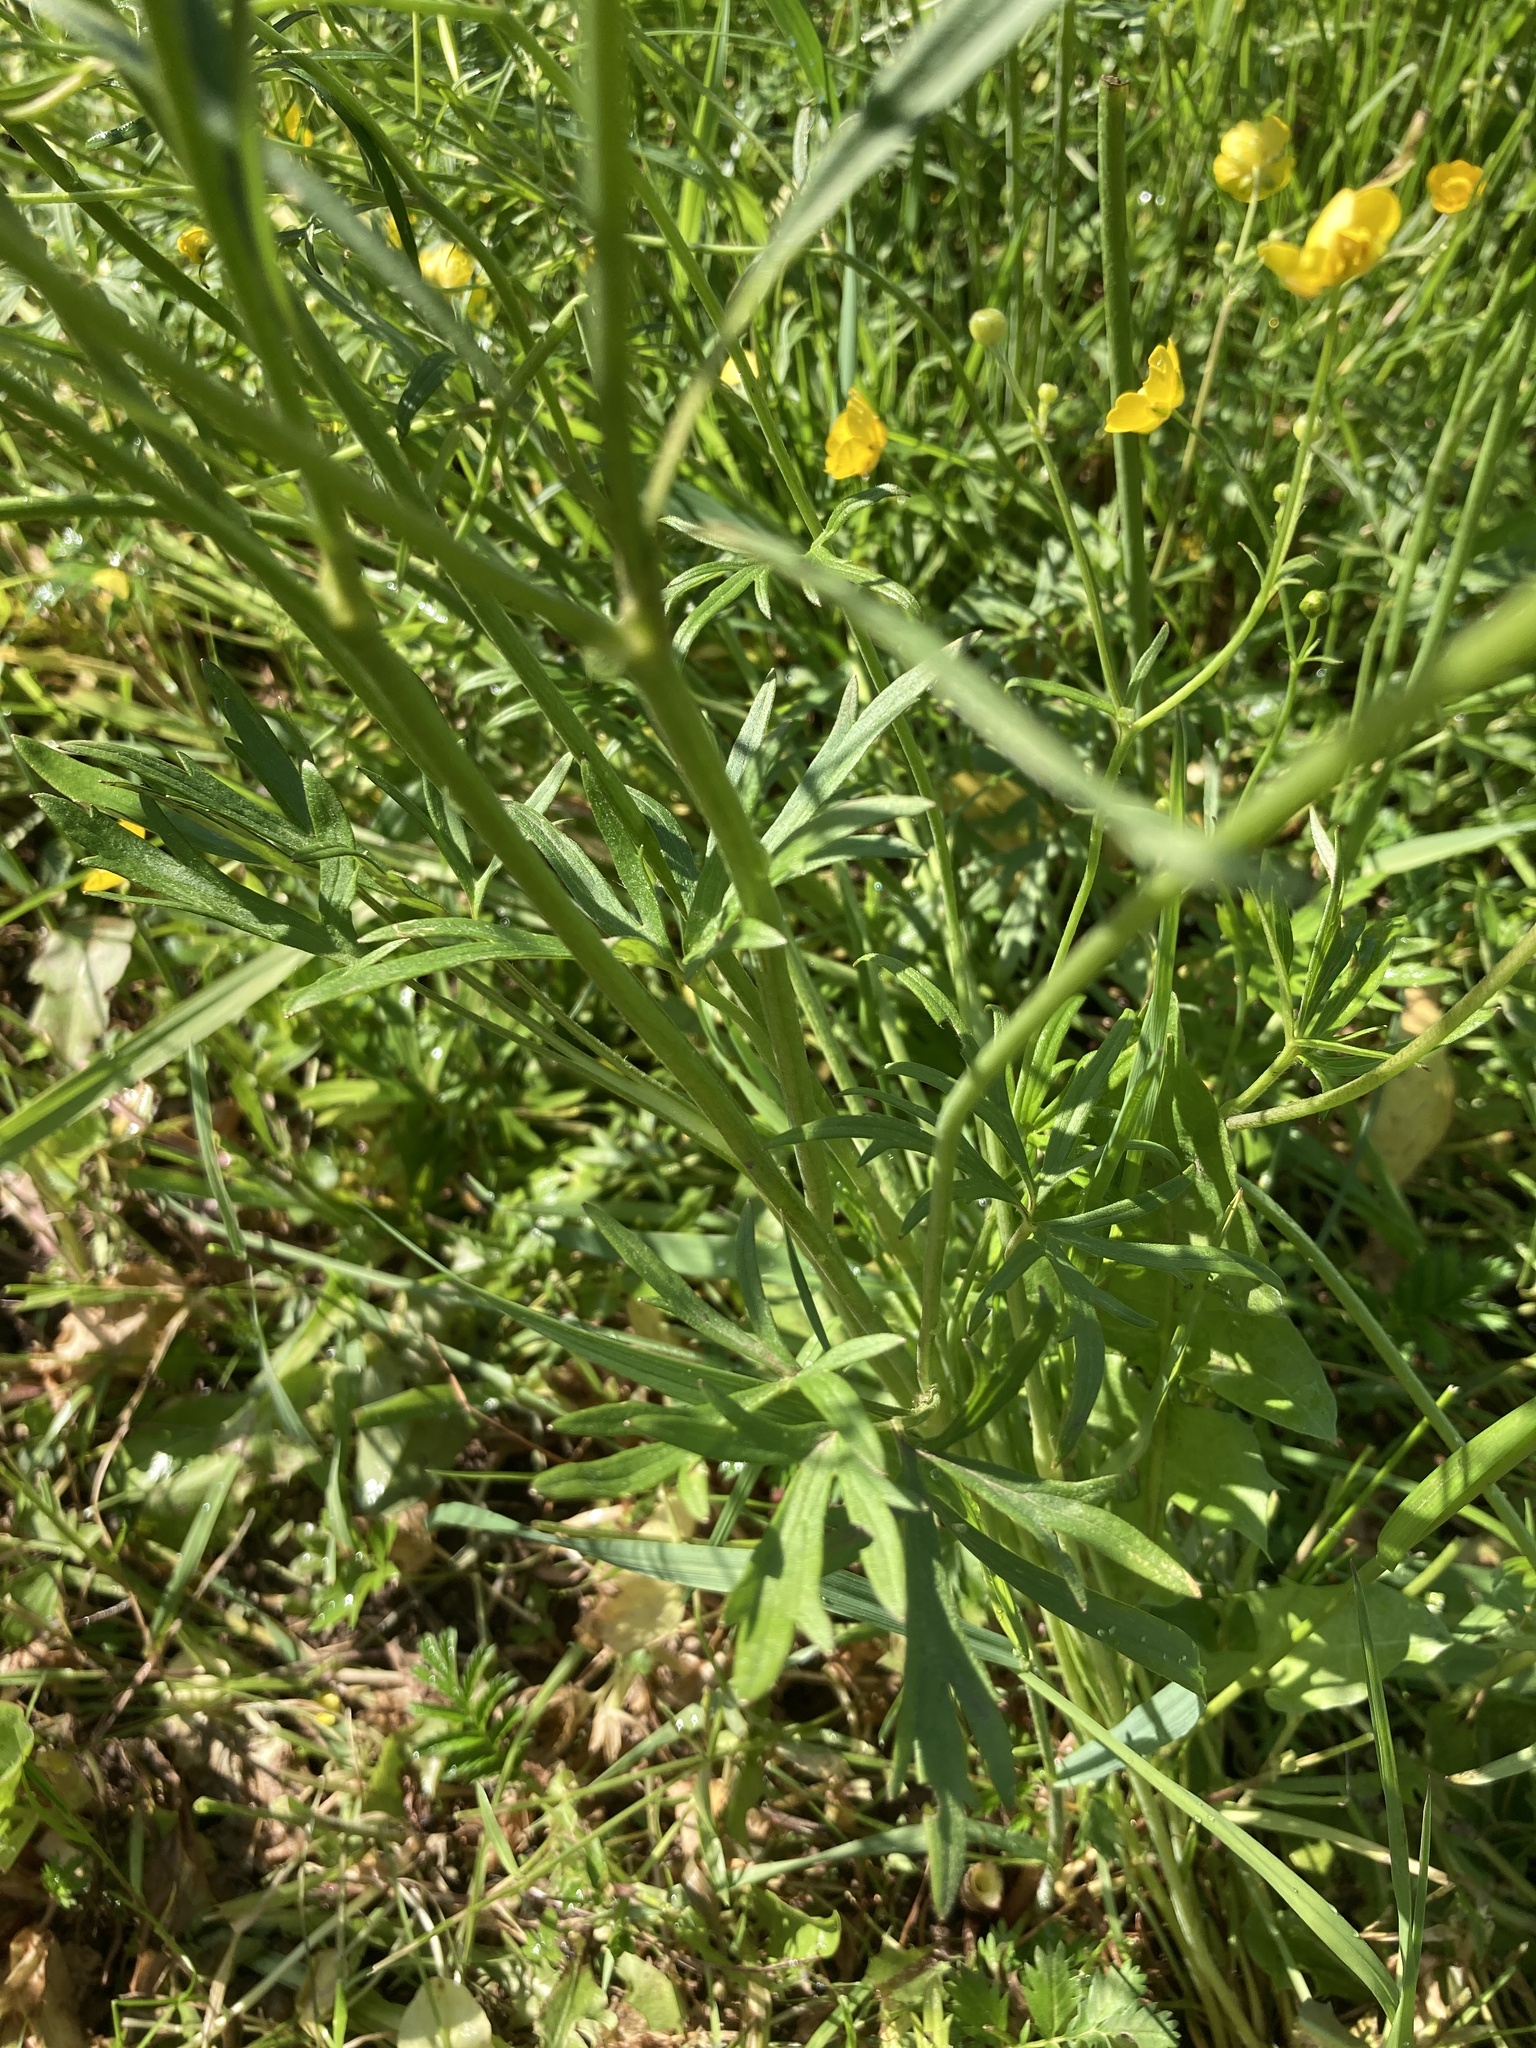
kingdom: Plantae
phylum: Tracheophyta
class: Magnoliopsida
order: Ranunculales
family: Ranunculaceae
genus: Ranunculus
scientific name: Ranunculus acris
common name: Meadow buttercup
